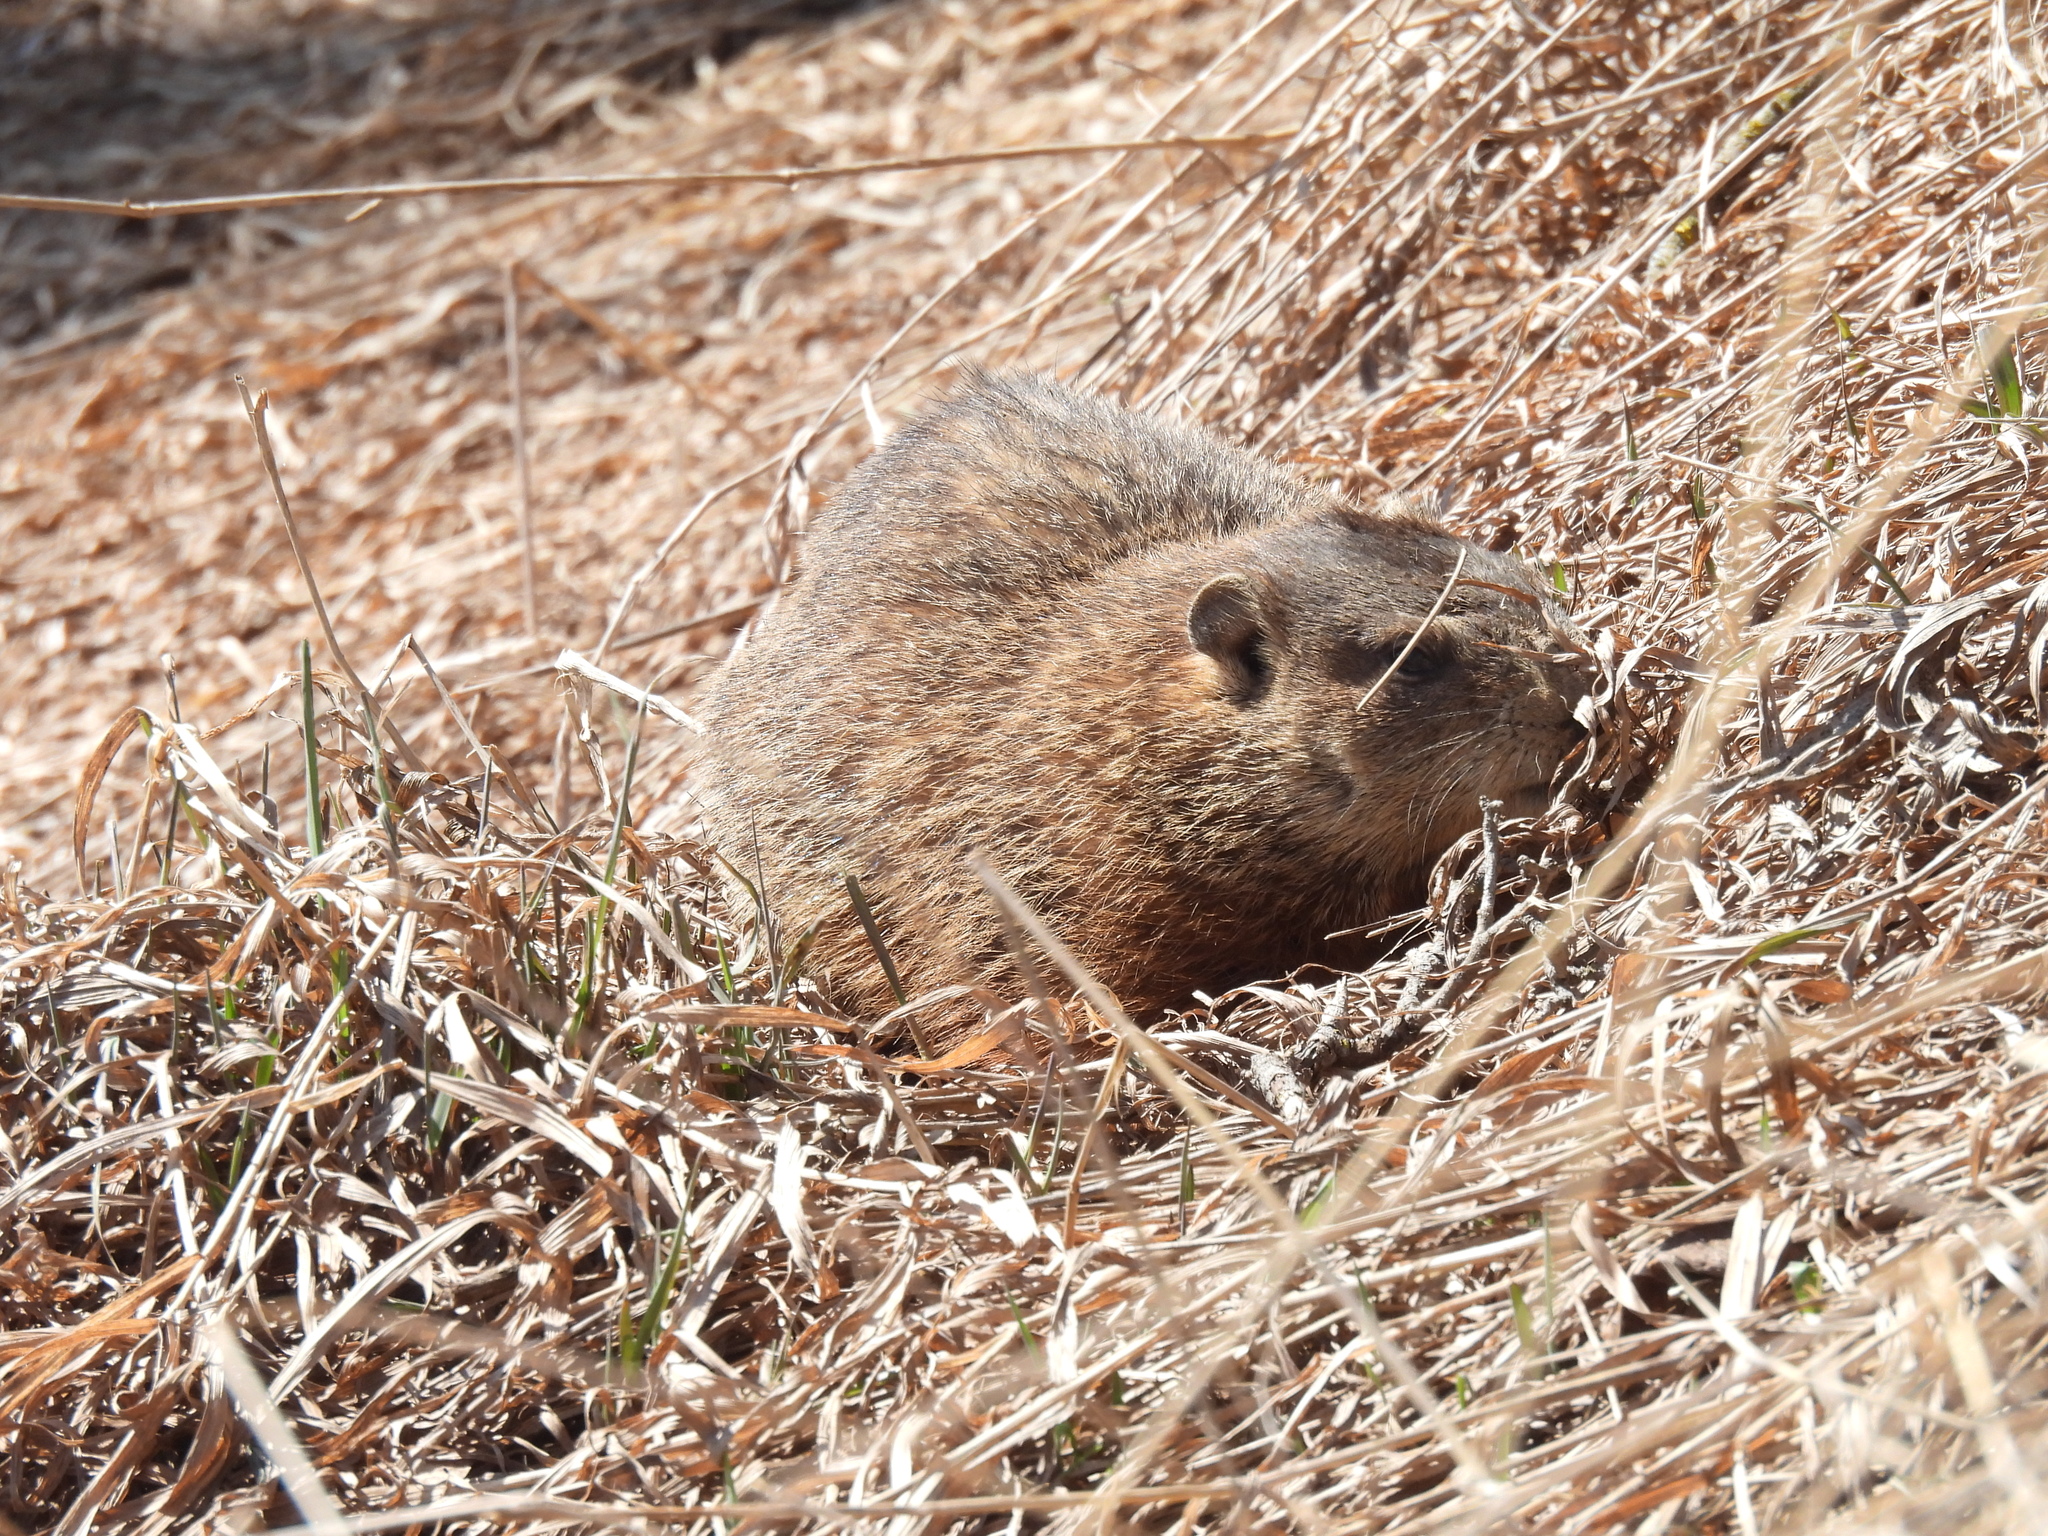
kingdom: Animalia
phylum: Chordata
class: Mammalia
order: Rodentia
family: Sciuridae
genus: Marmota
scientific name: Marmota monax
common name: Groundhog
